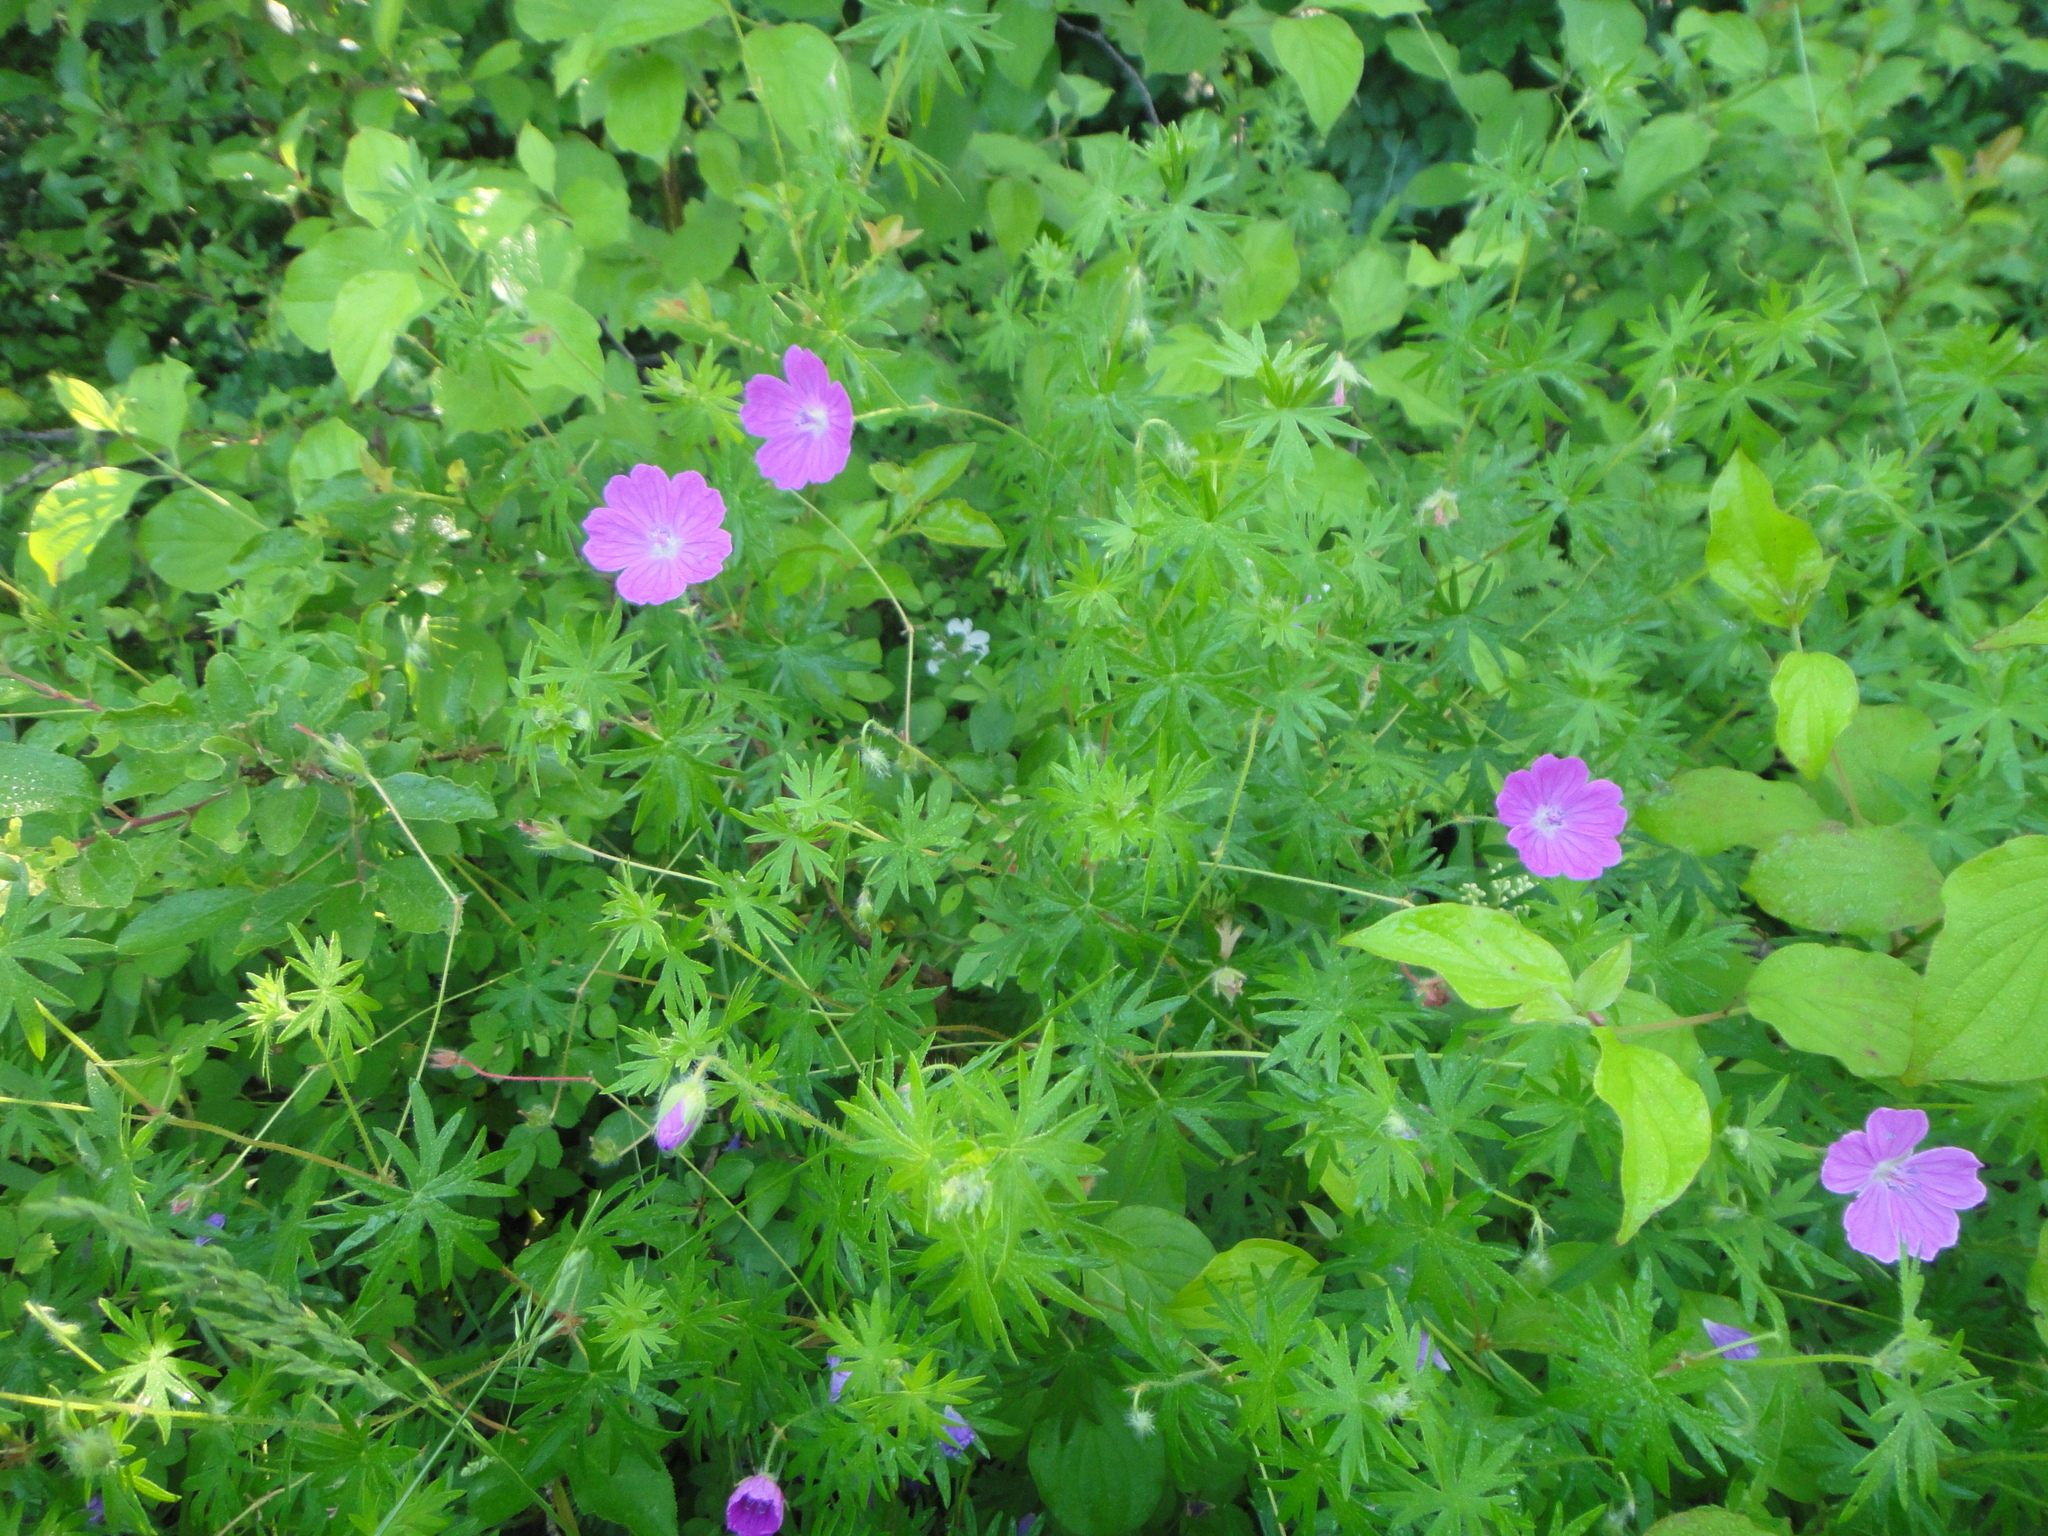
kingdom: Plantae
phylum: Tracheophyta
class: Magnoliopsida
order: Geraniales
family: Geraniaceae
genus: Geranium
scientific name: Geranium sanguineum
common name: Bloody crane's-bill
